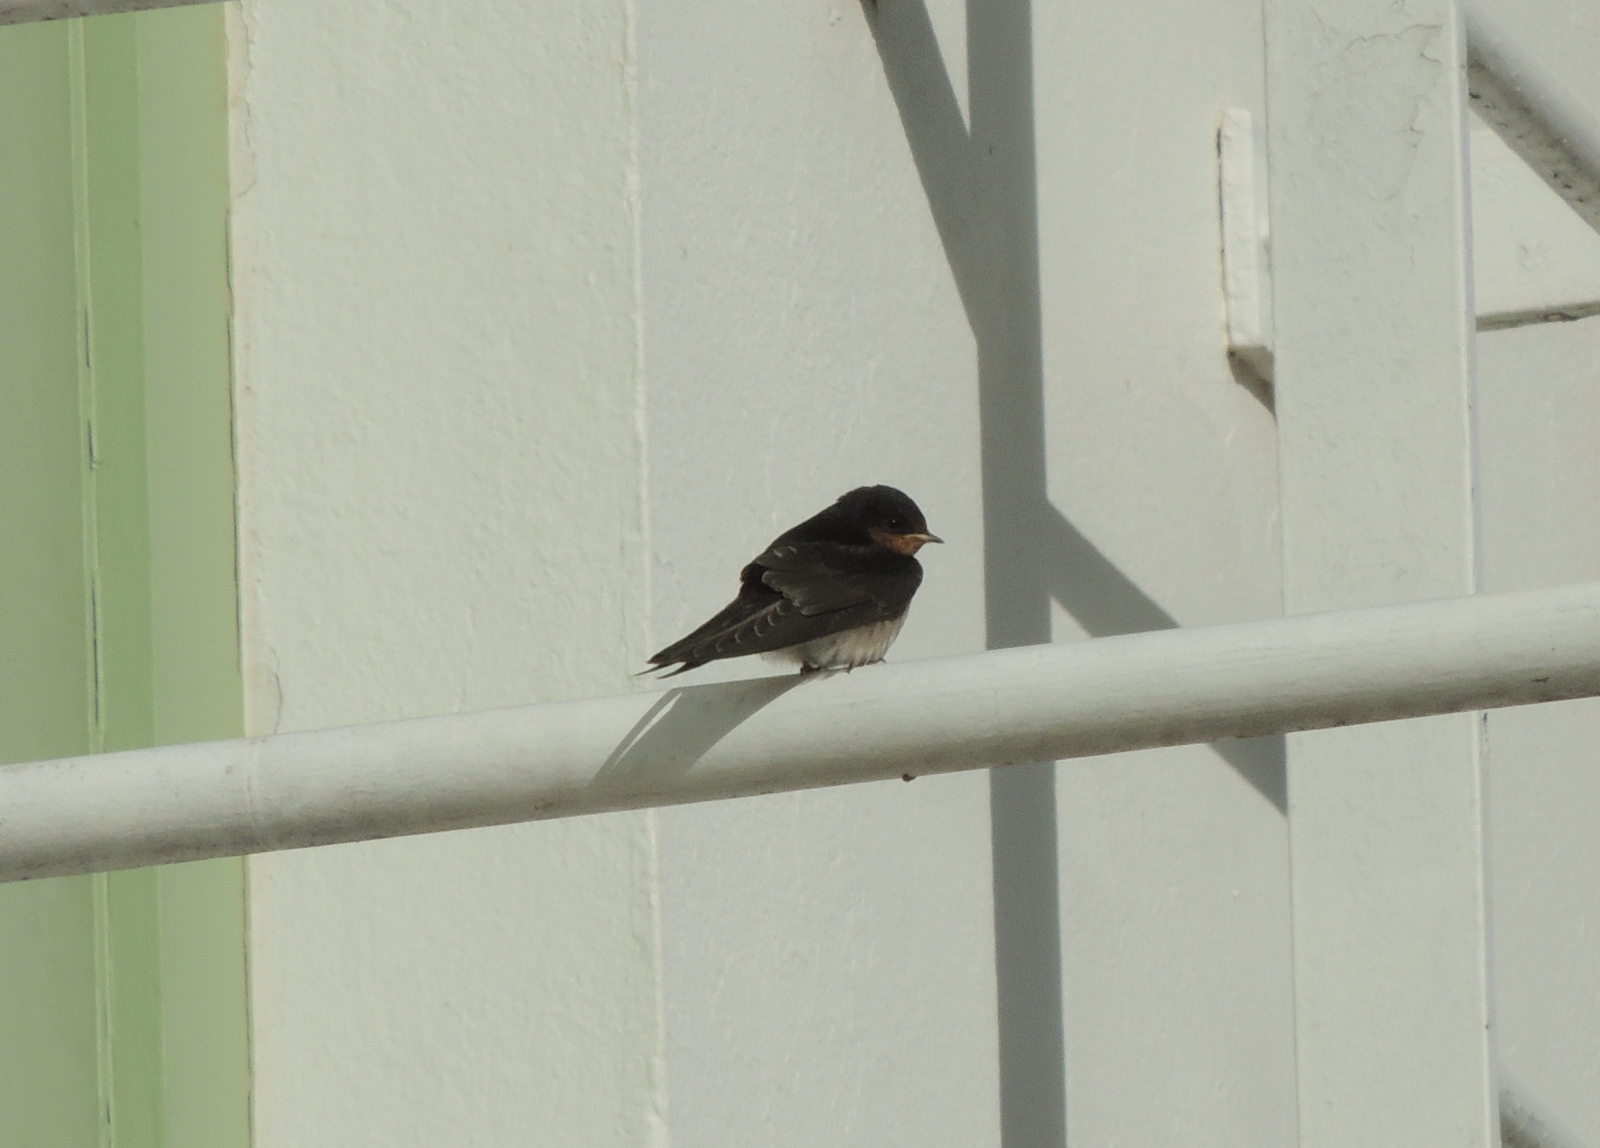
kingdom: Animalia
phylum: Chordata
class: Aves
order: Passeriformes
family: Hirundinidae
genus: Hirundo
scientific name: Hirundo neoxena
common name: Welcome swallow
